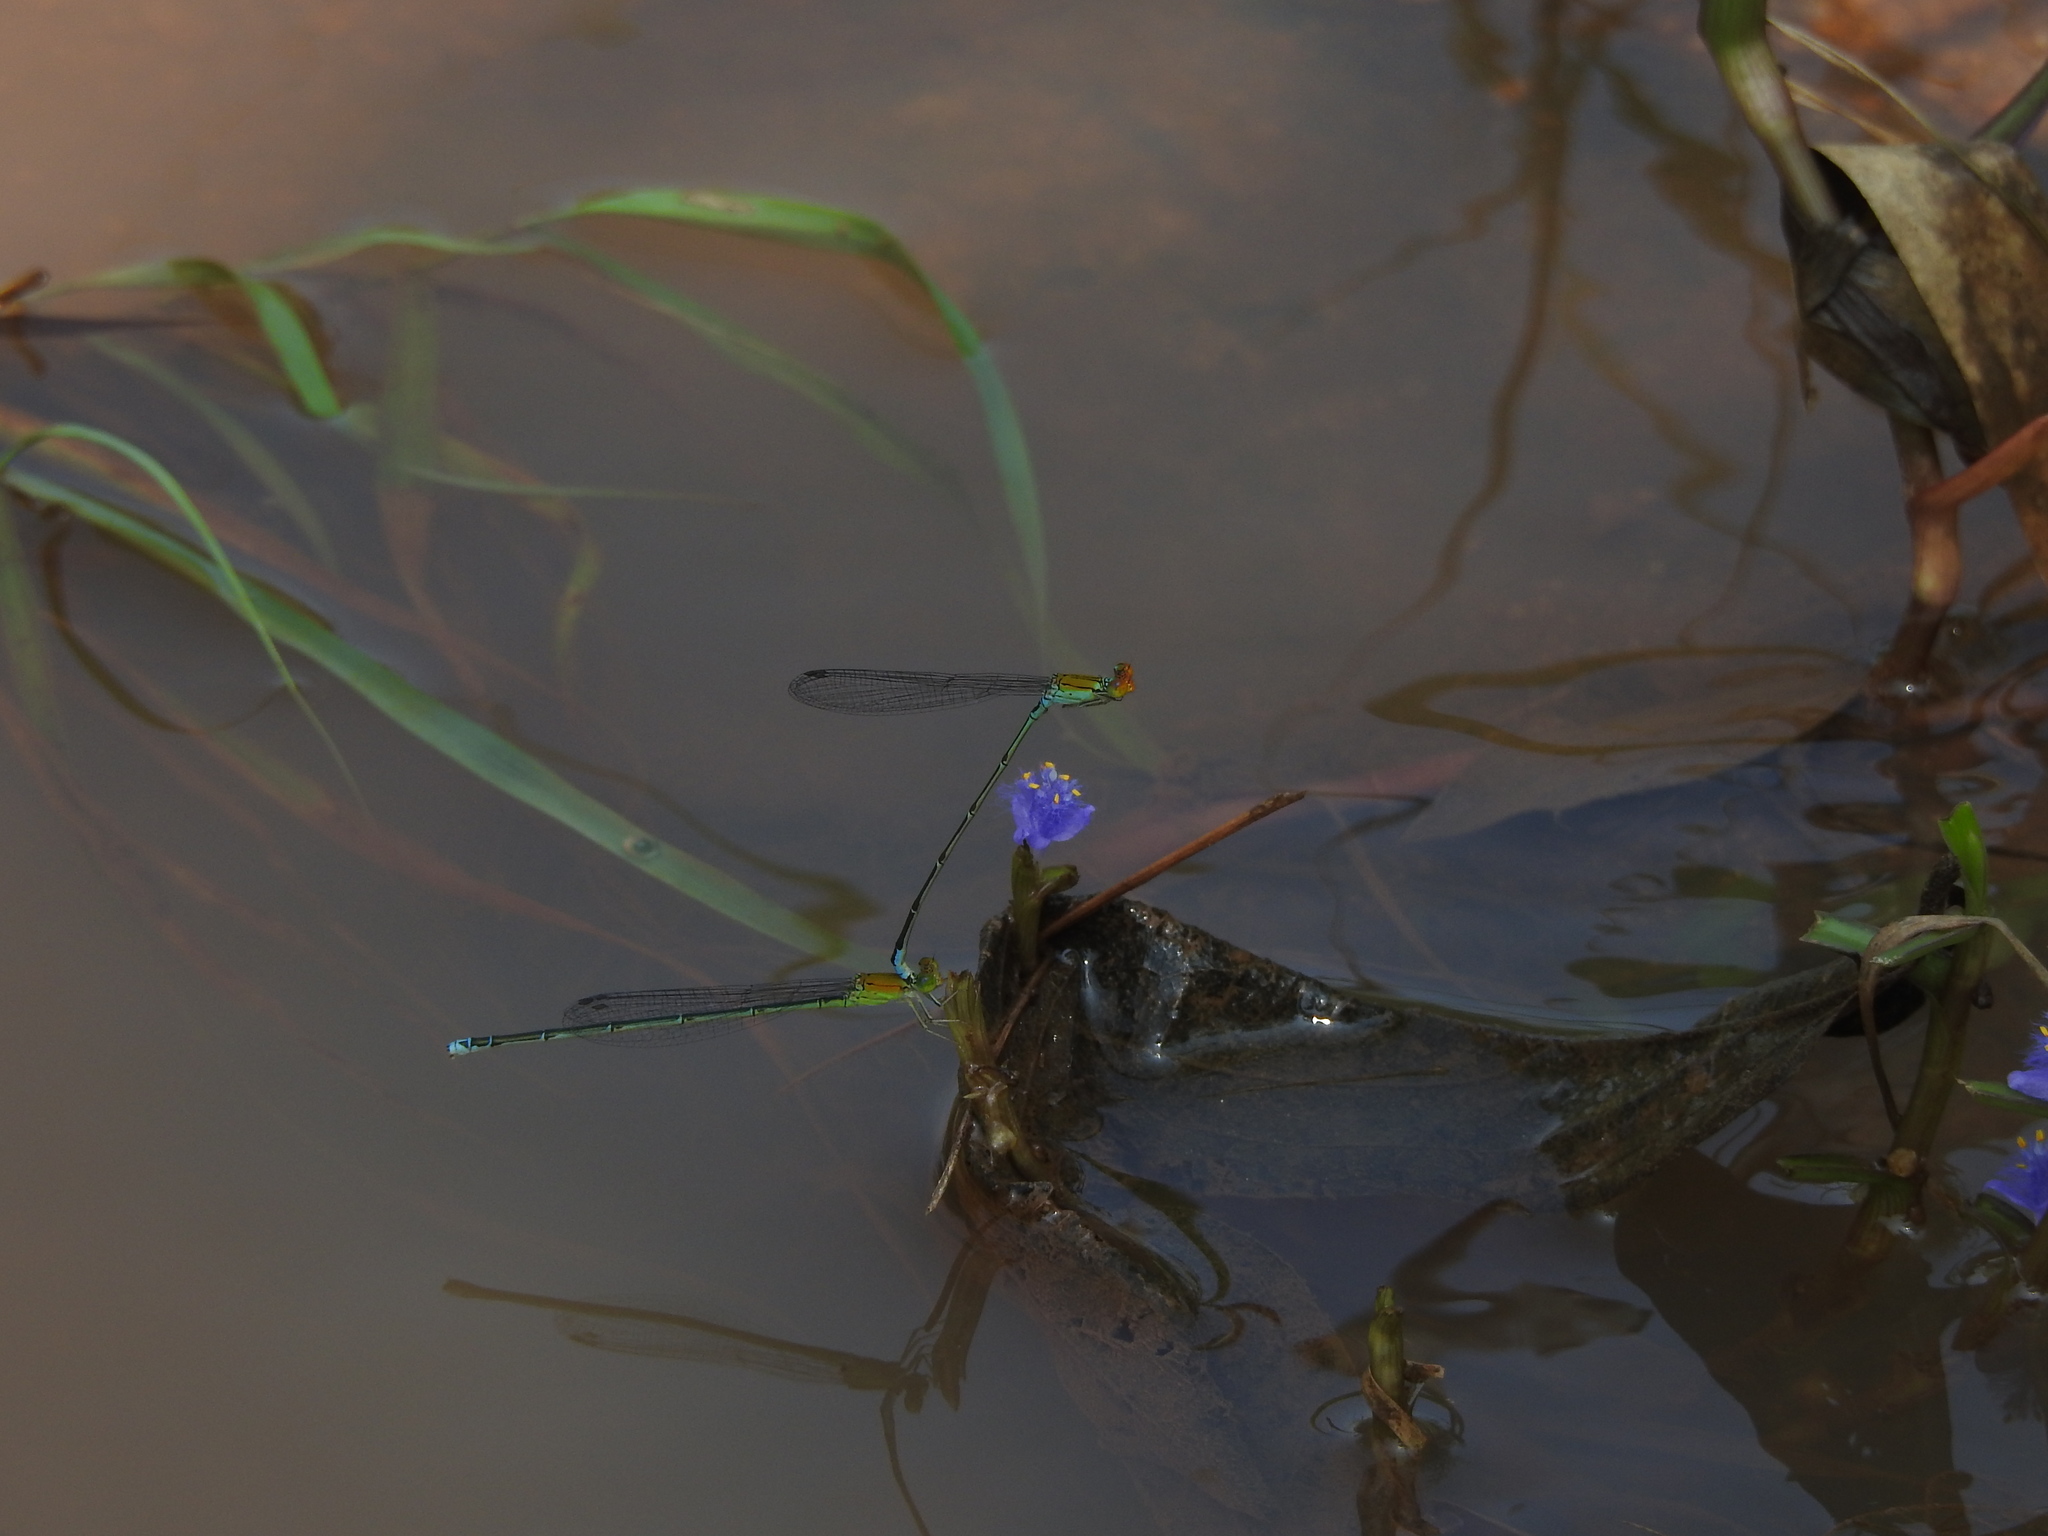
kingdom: Animalia
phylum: Arthropoda
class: Insecta
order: Odonata
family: Coenagrionidae
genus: Pseudagrion
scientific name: Pseudagrion rubriceps
